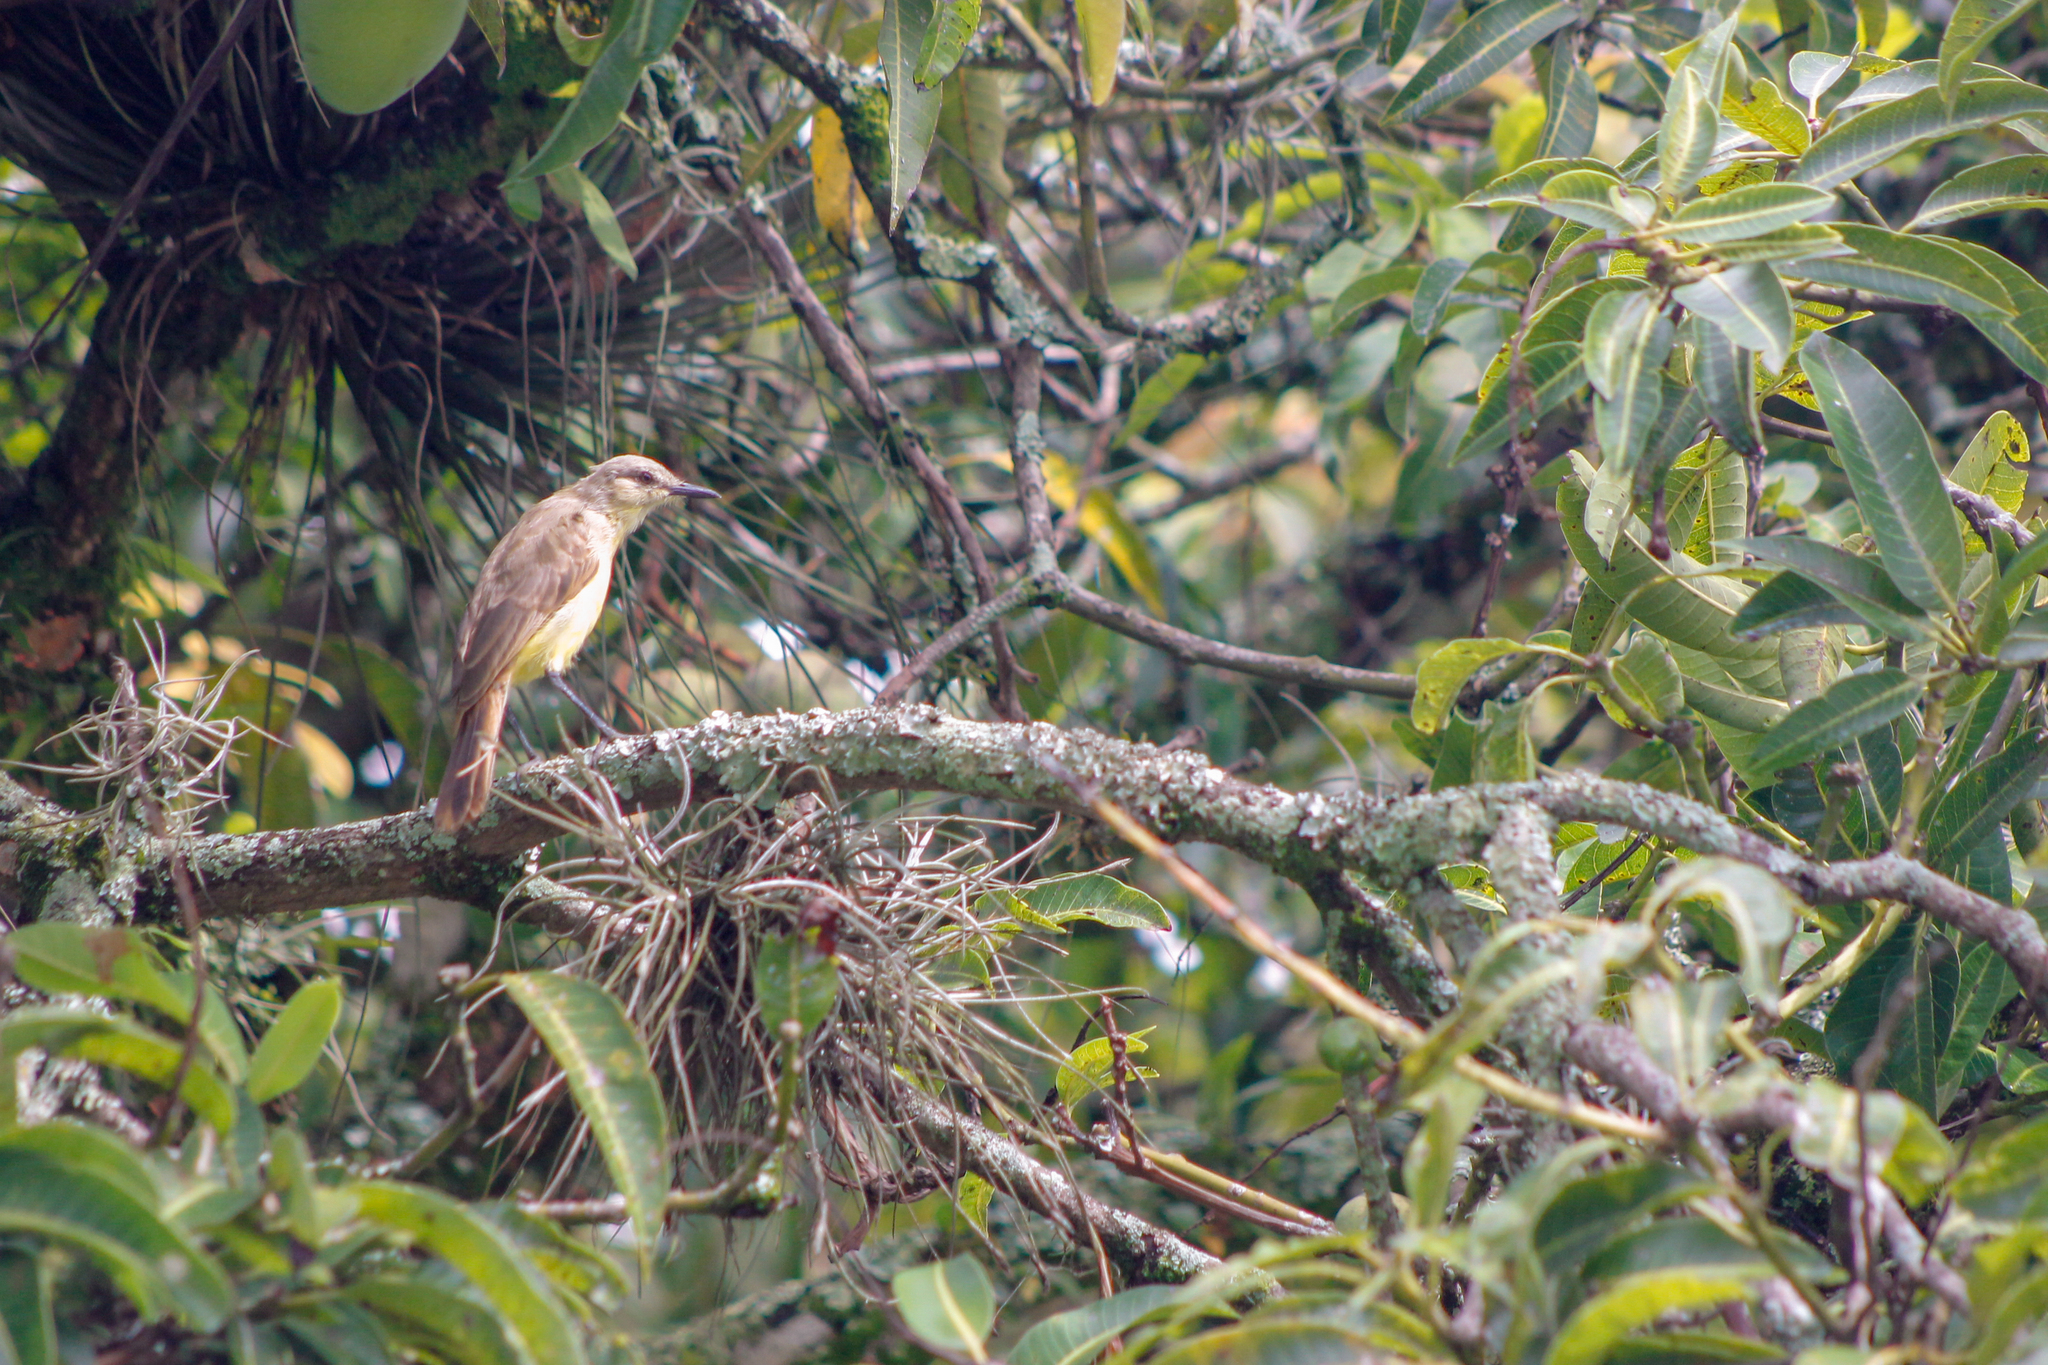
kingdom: Animalia
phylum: Chordata
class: Aves
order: Passeriformes
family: Tyrannidae
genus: Machetornis
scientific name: Machetornis rixosa
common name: Cattle tyrant
